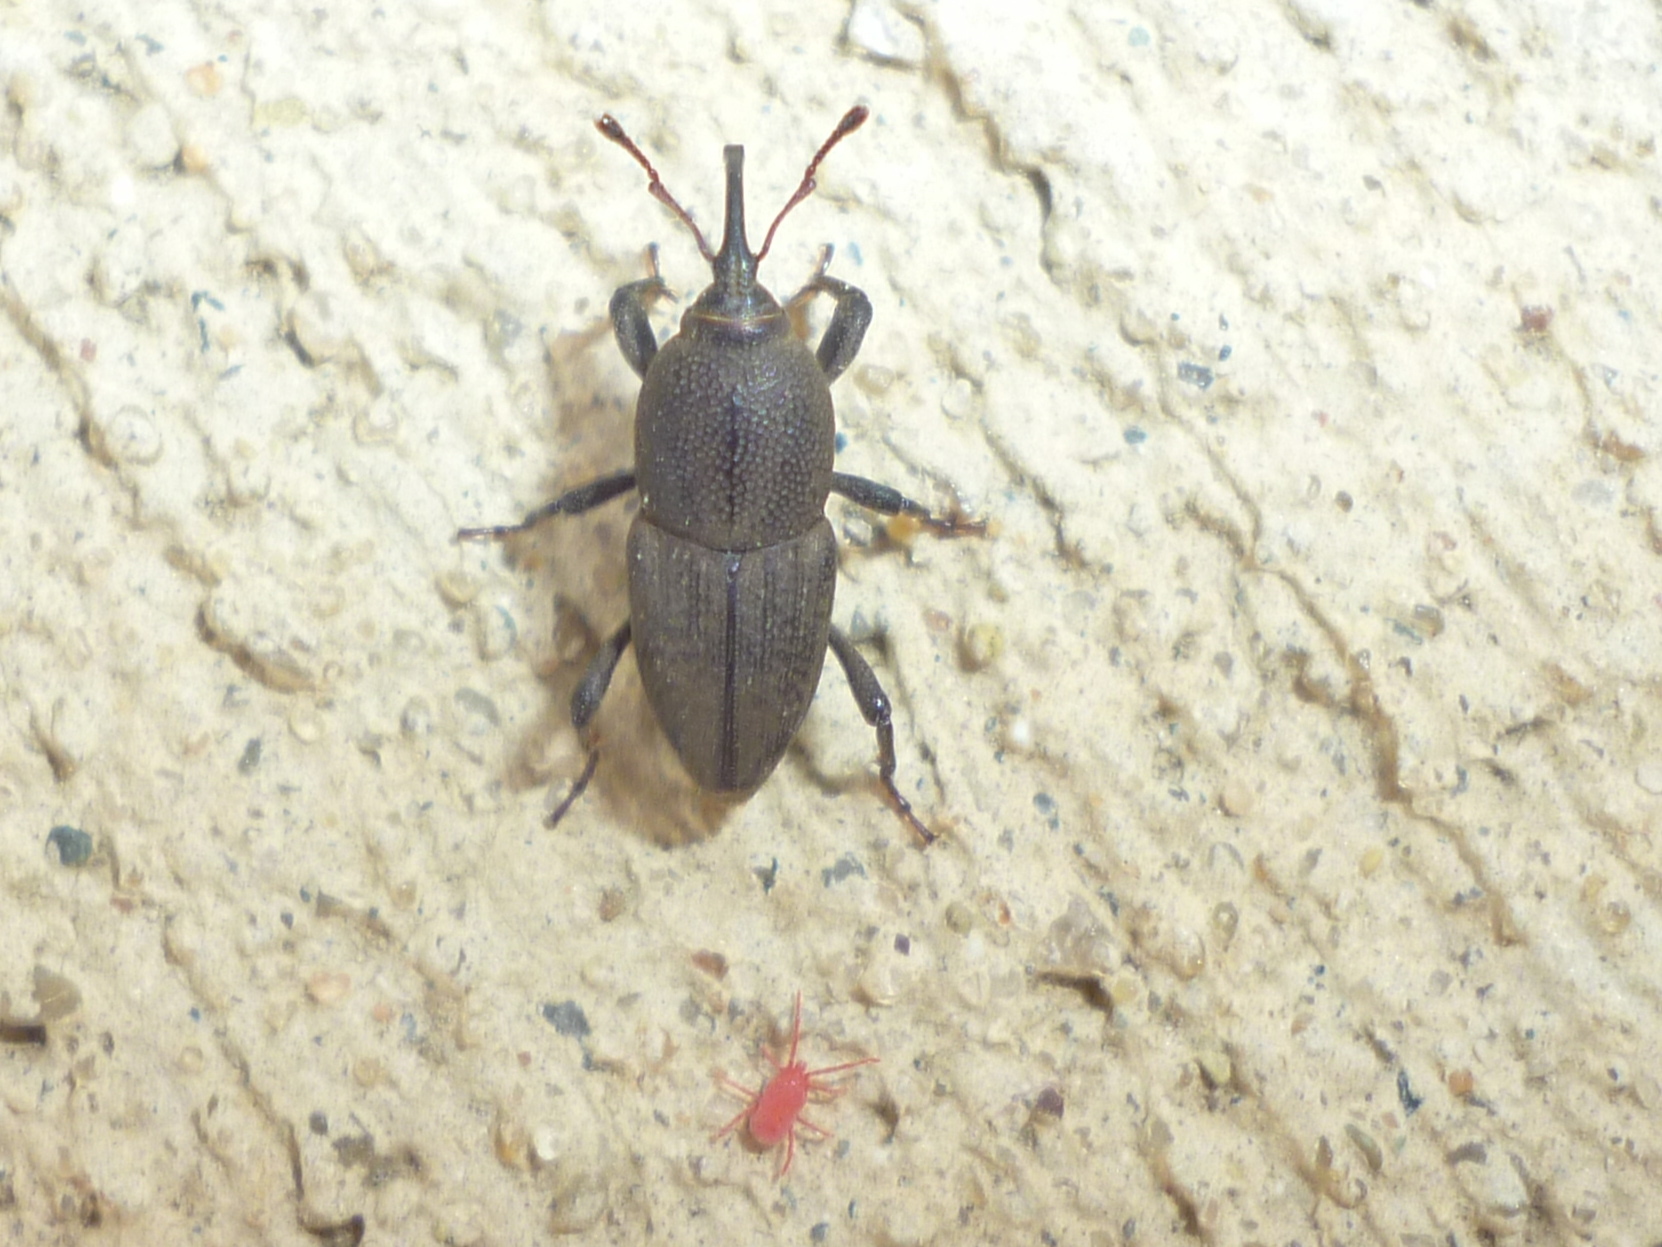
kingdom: Animalia
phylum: Arthropoda
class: Insecta
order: Coleoptera
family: Dryophthoridae
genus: Sphenophorus
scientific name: Sphenophorus interstitialis
